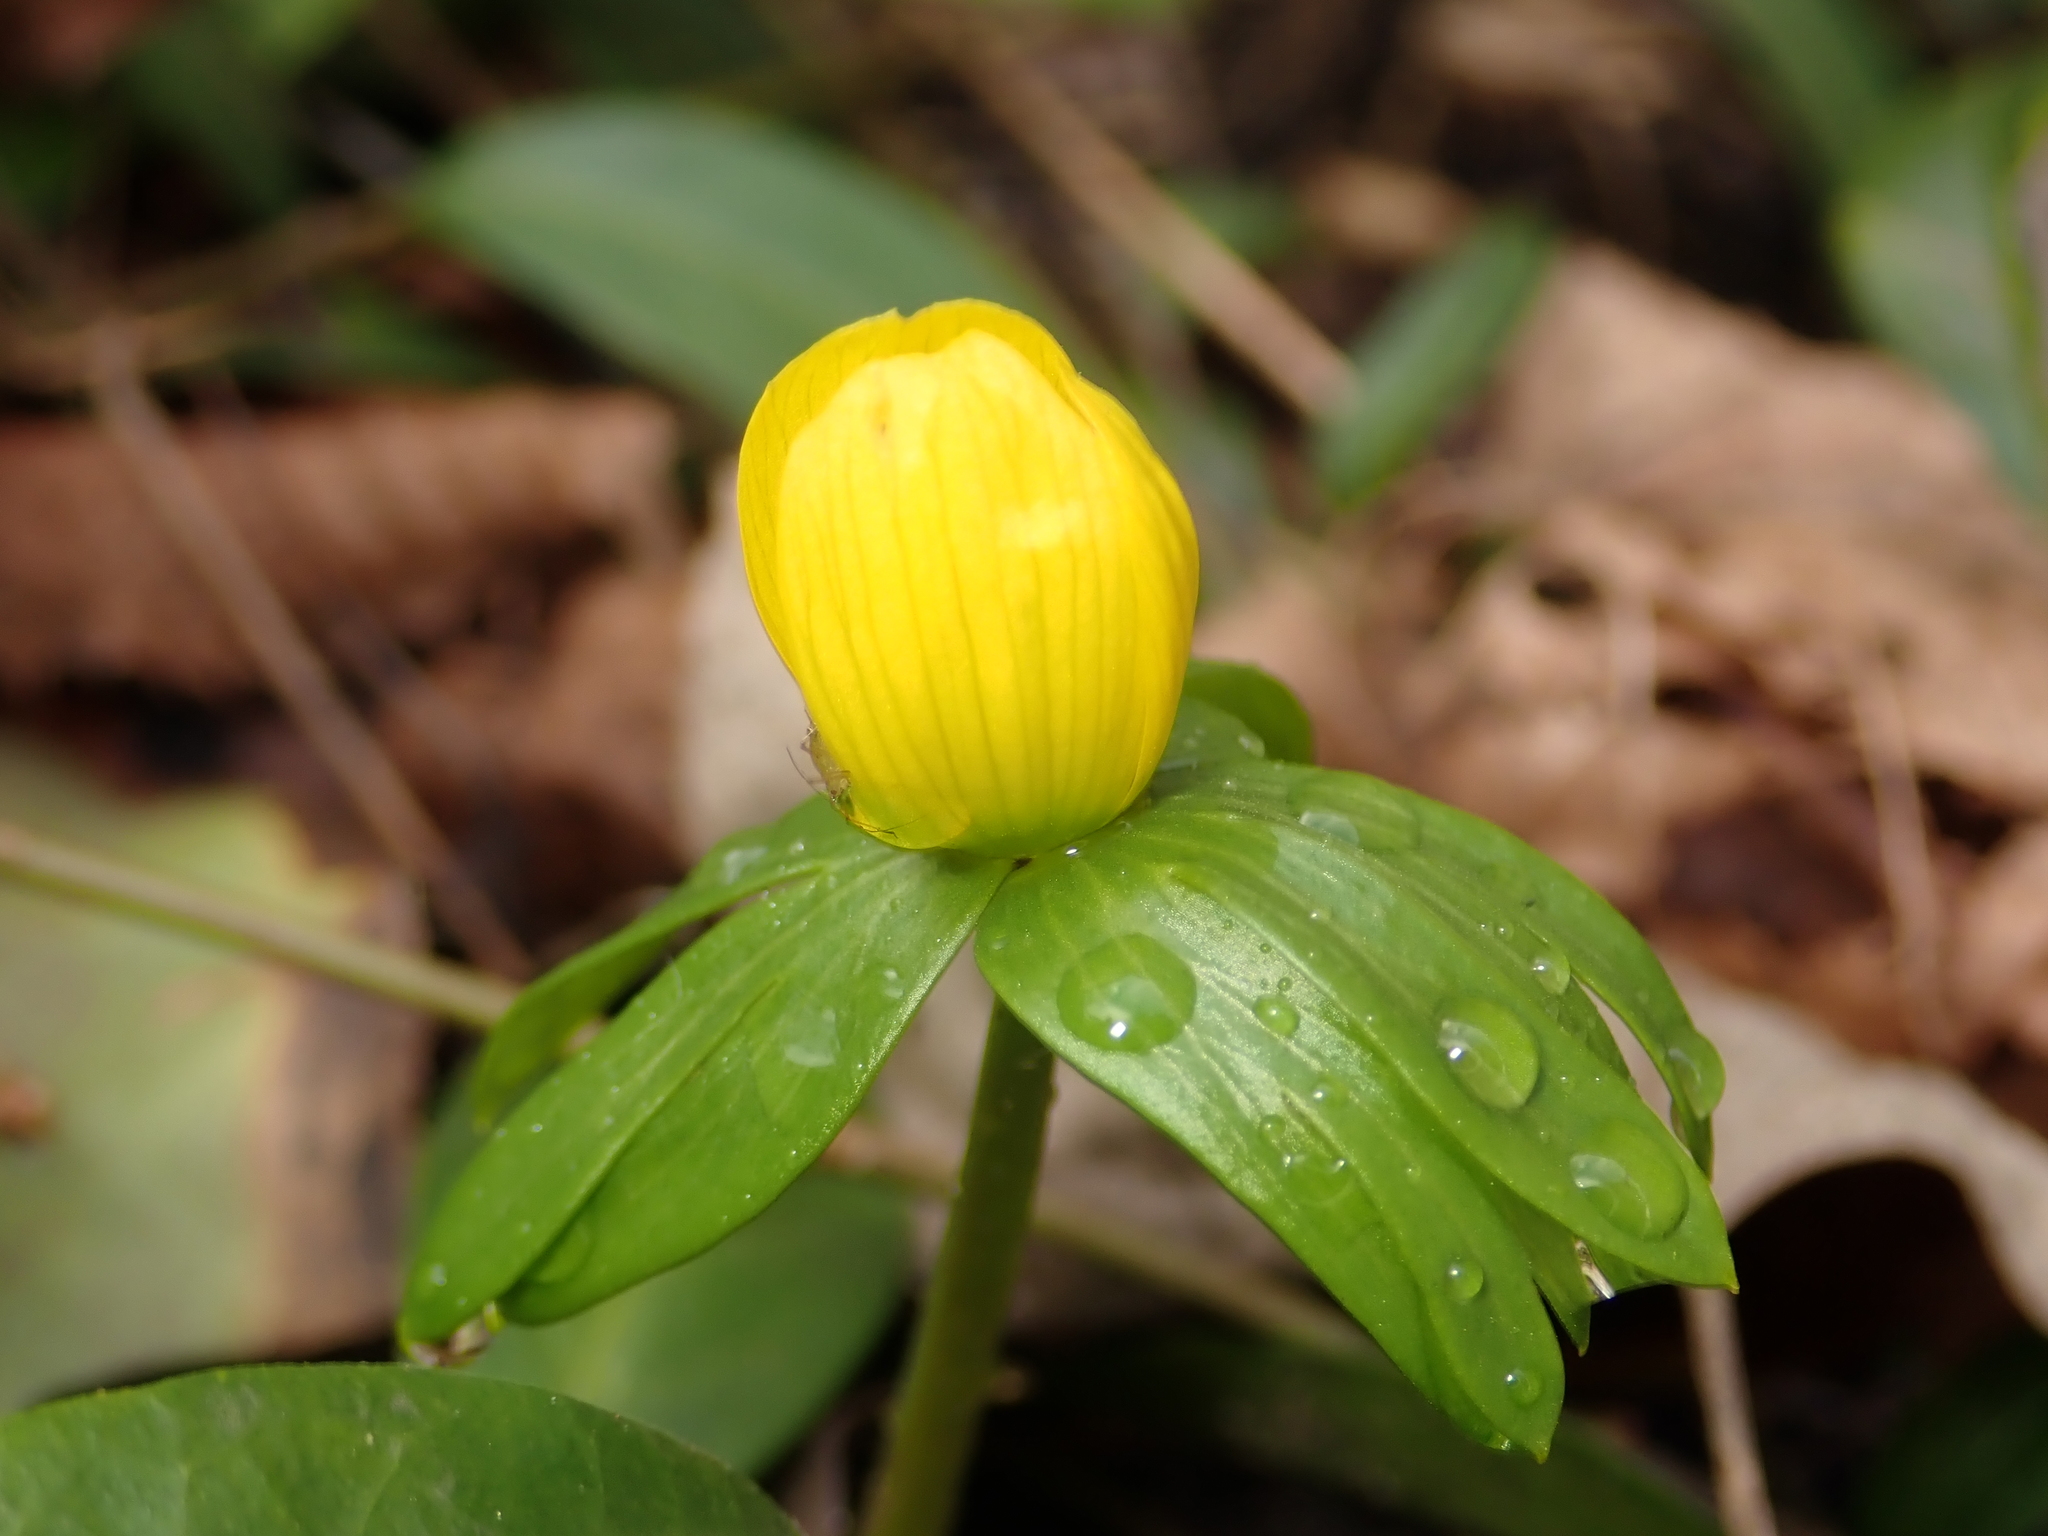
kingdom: Plantae
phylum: Tracheophyta
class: Magnoliopsida
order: Ranunculales
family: Ranunculaceae
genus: Eranthis
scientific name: Eranthis hyemalis
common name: Winter aconite
